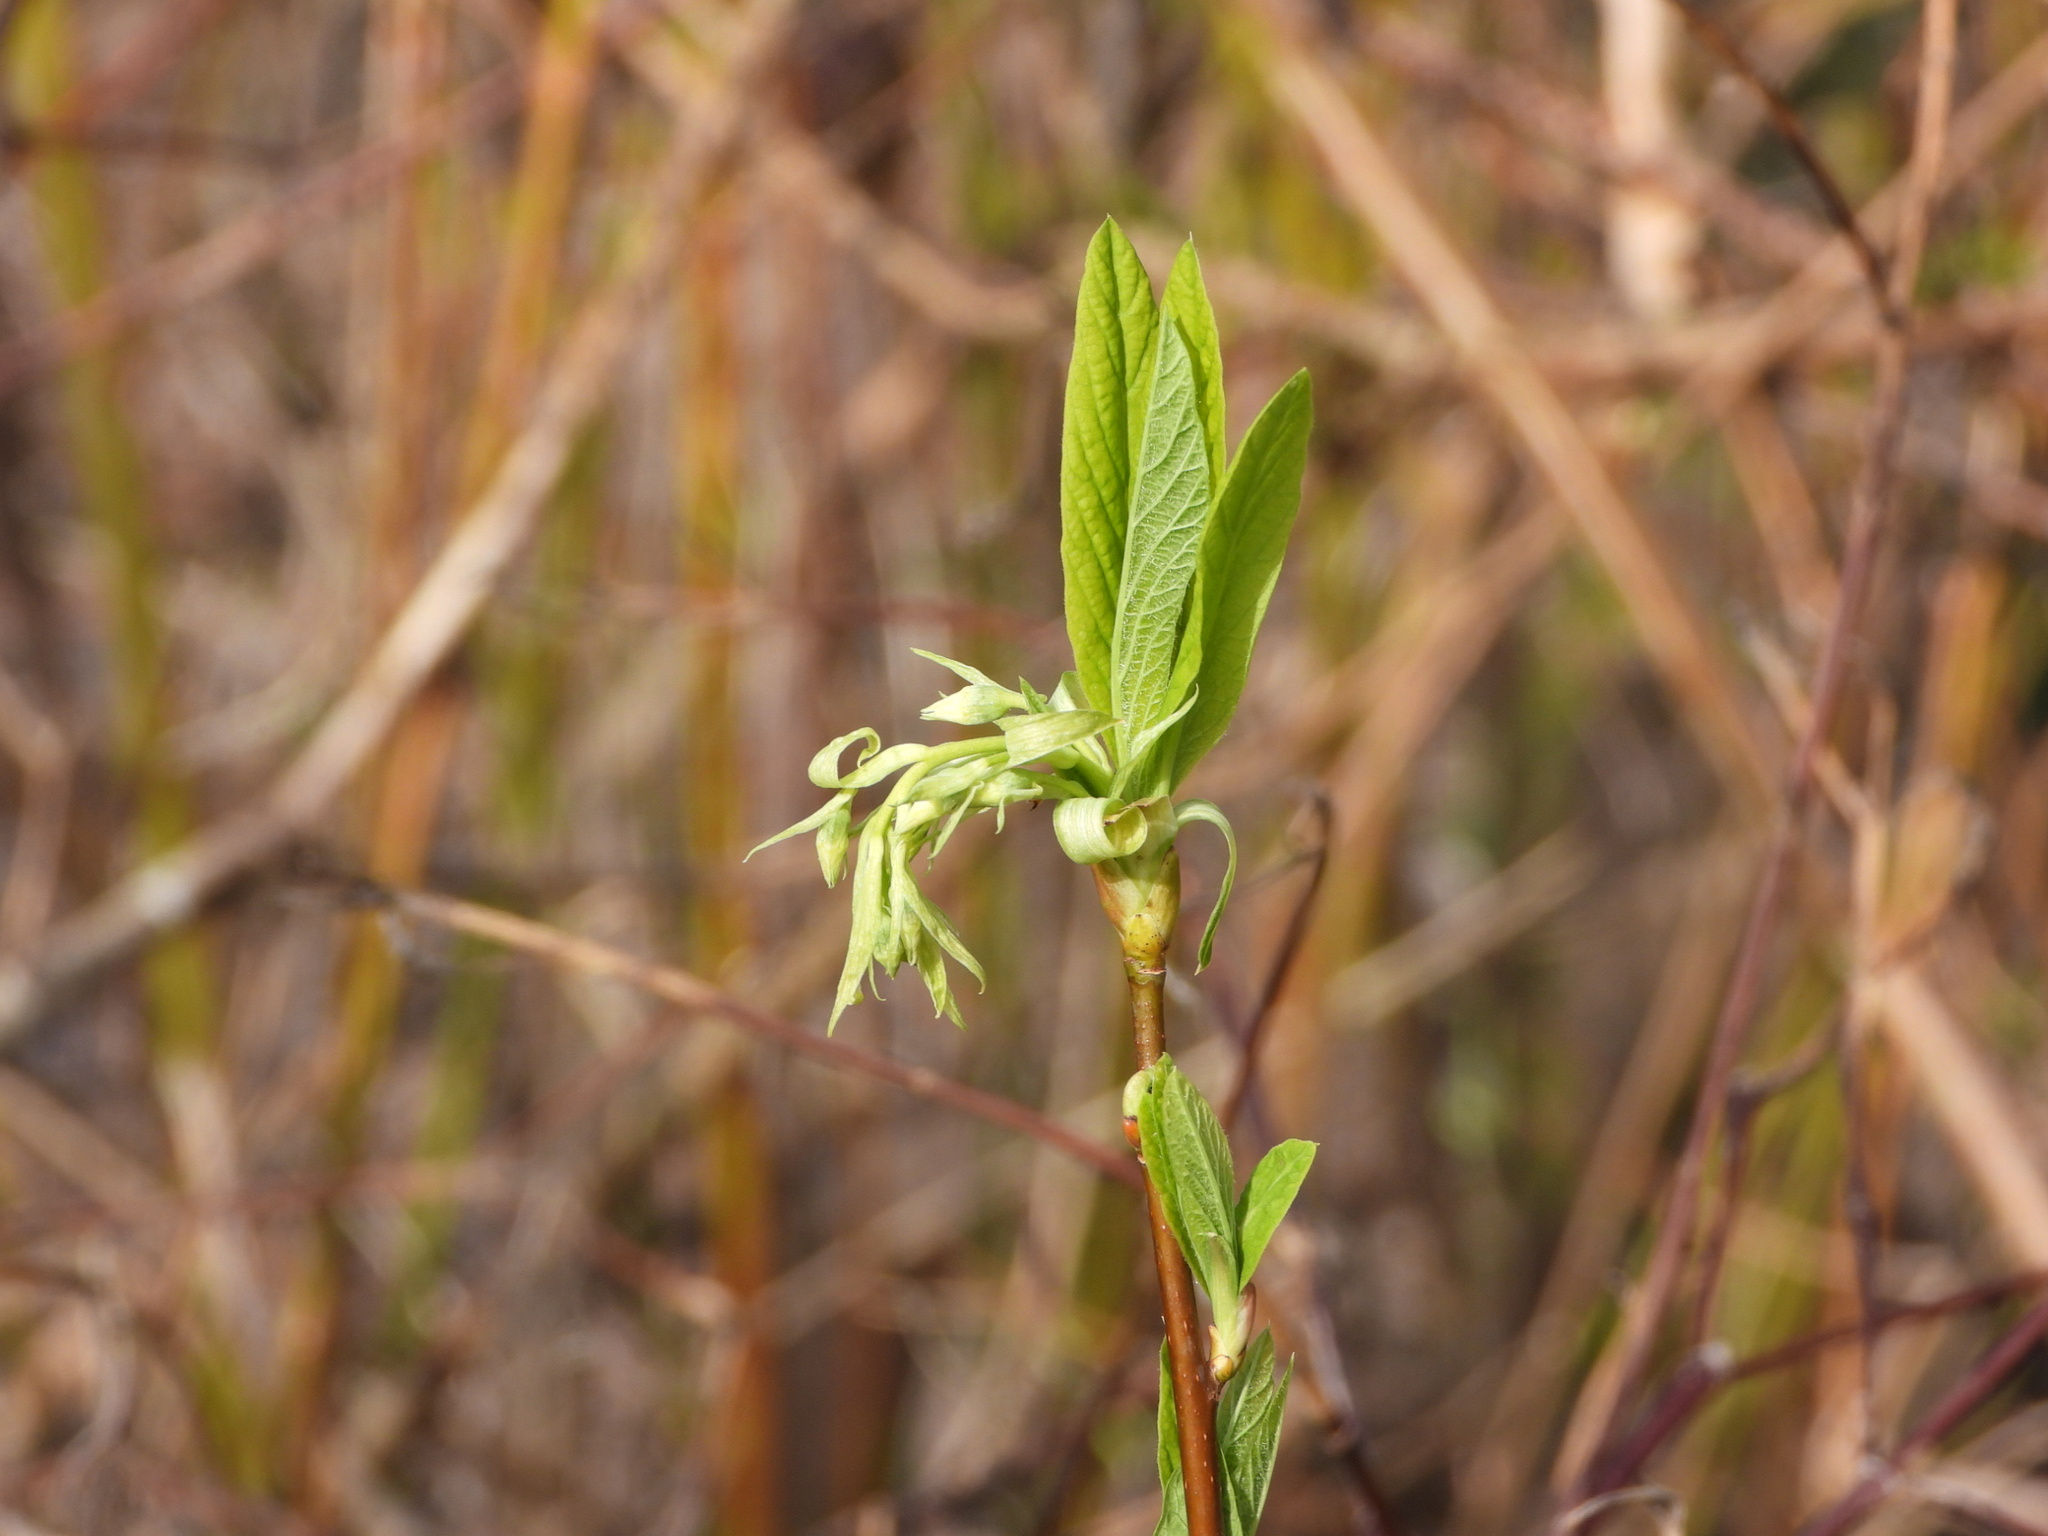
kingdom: Plantae
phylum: Tracheophyta
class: Magnoliopsida
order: Rosales
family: Rosaceae
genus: Oemleria
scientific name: Oemleria cerasiformis
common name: Osoberry
